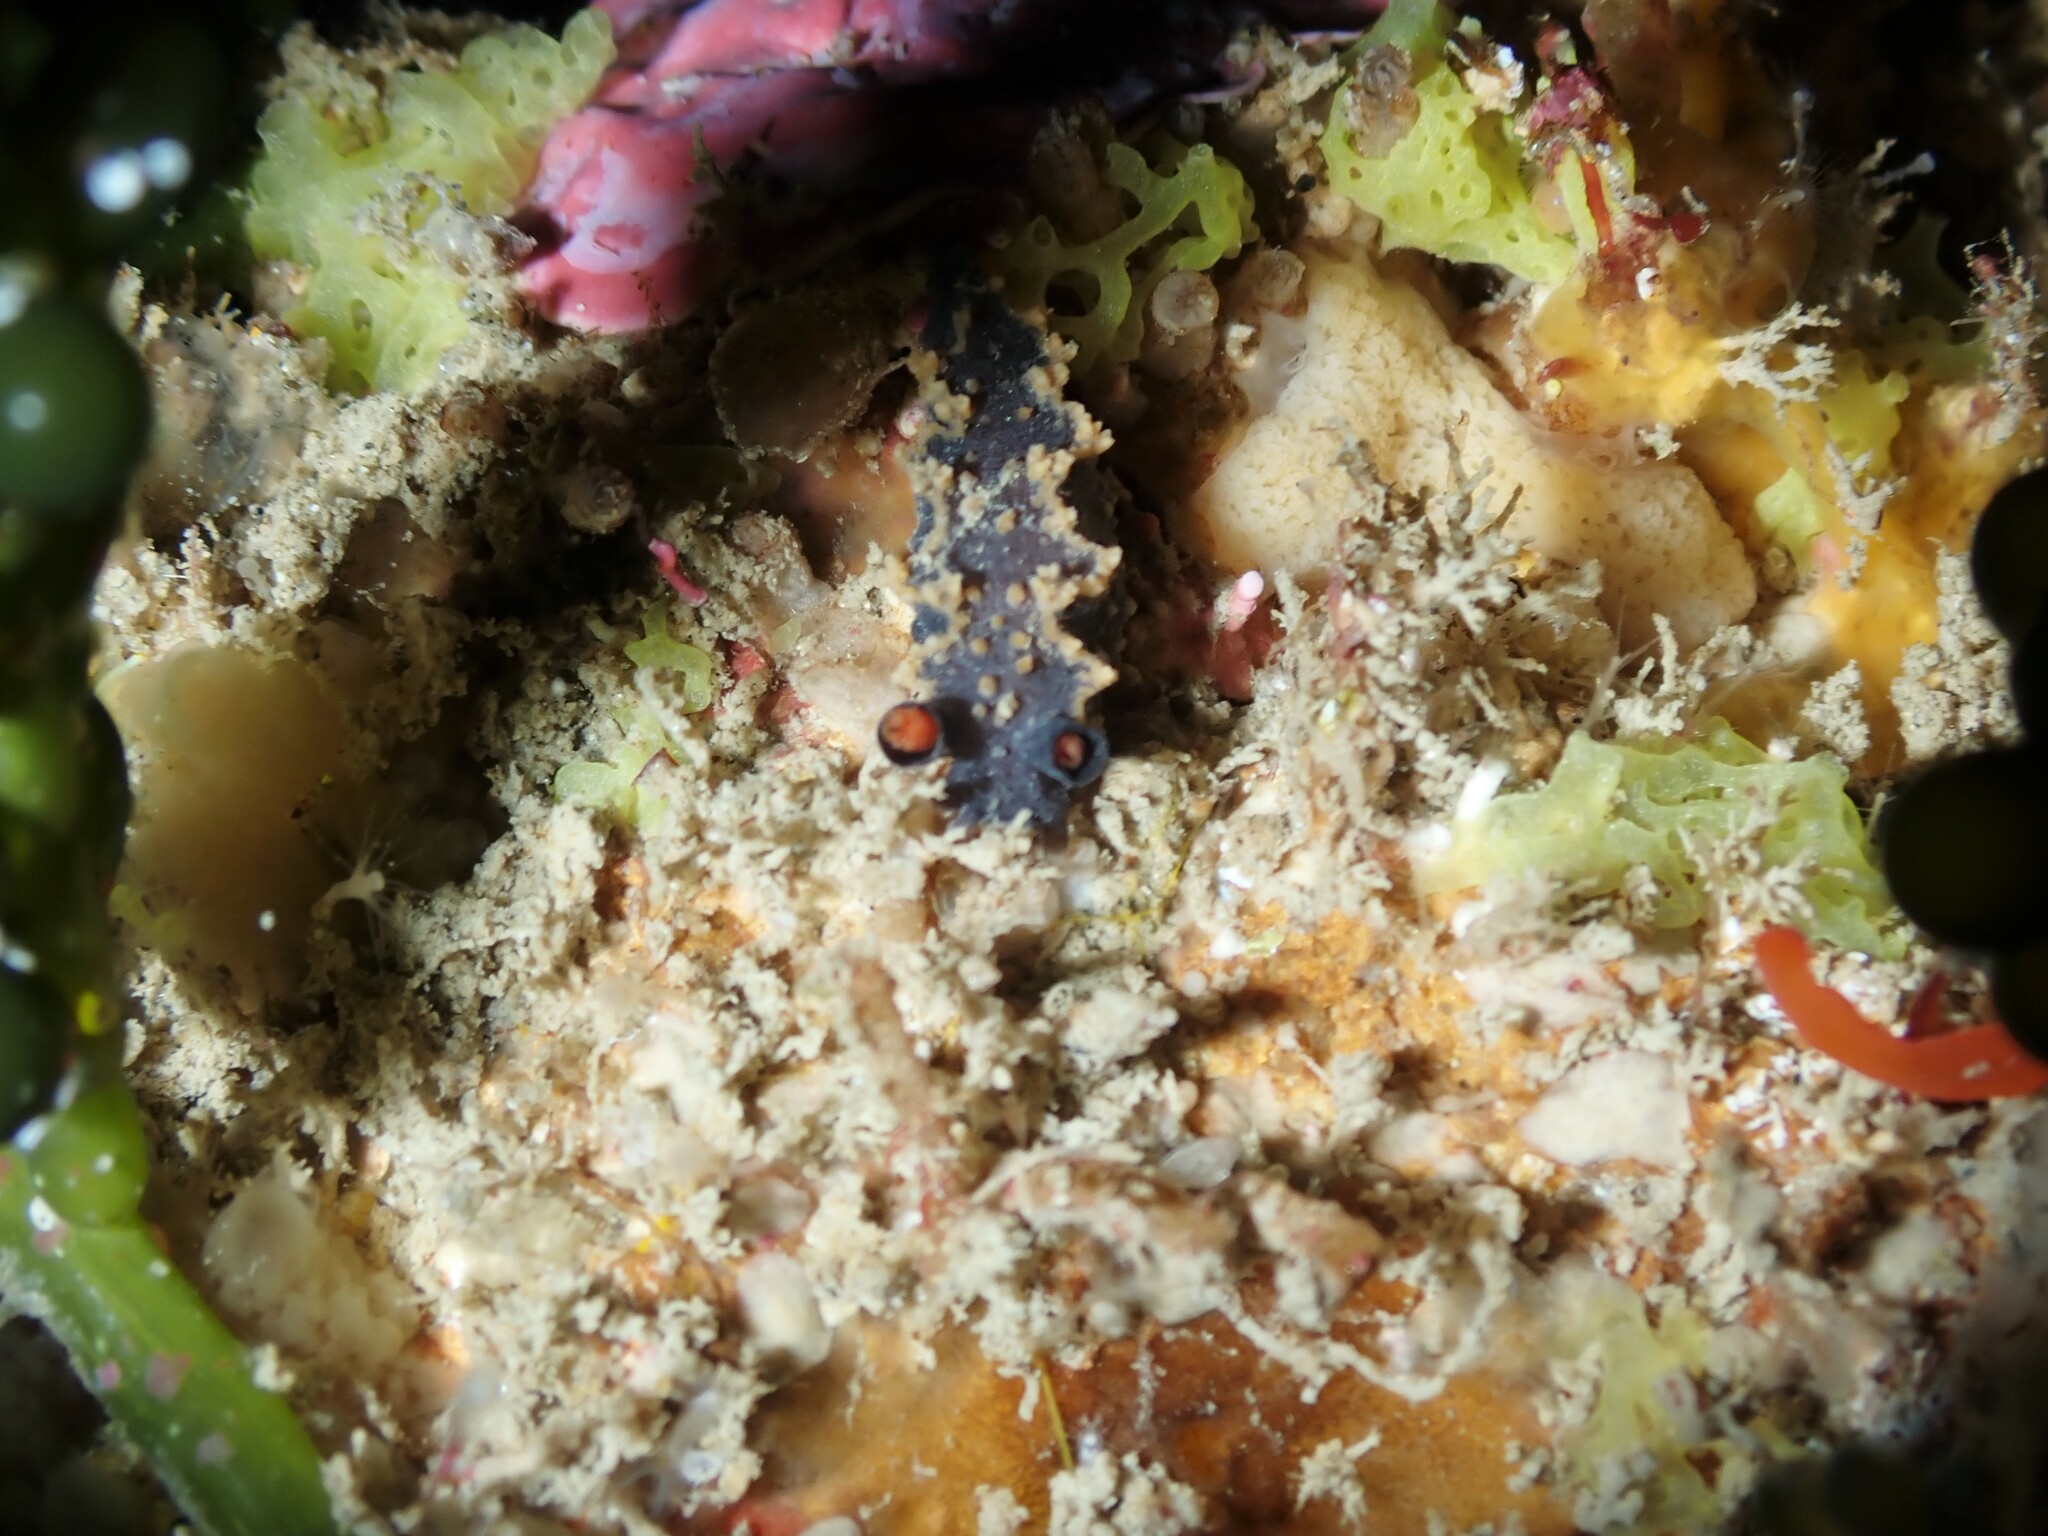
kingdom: Animalia
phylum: Mollusca
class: Gastropoda
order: Nudibranchia
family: Tritoniidae
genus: Tritonia
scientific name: Tritonia flemingi
